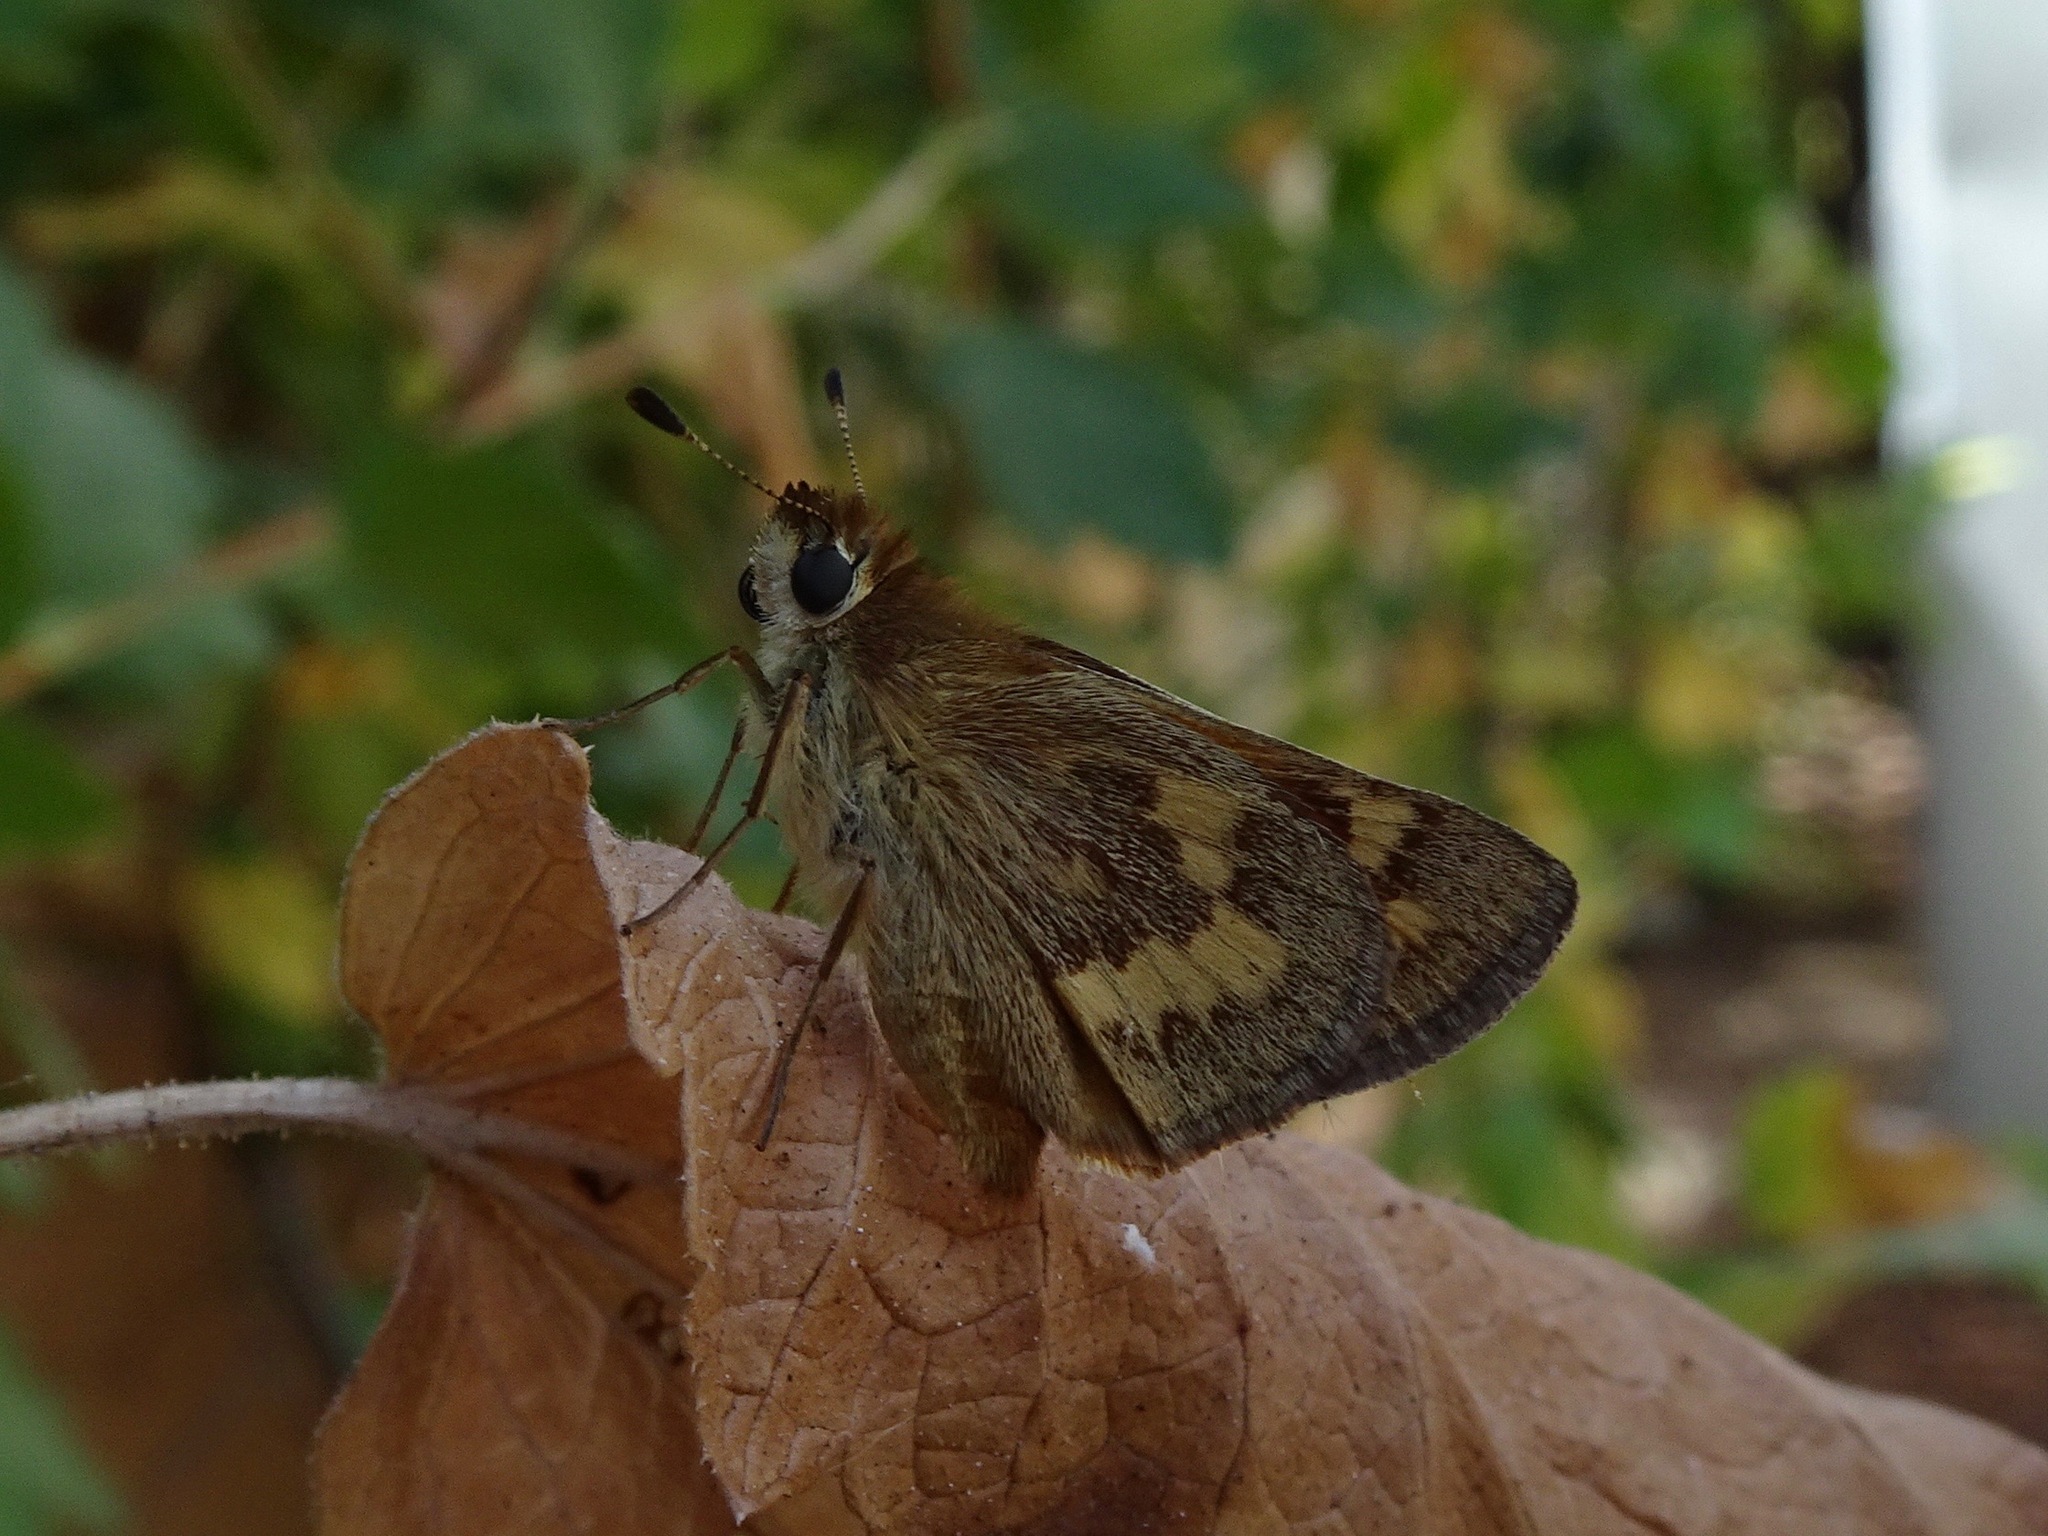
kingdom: Animalia
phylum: Arthropoda
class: Insecta
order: Lepidoptera
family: Hesperiidae
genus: Ochlodes
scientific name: Ochlodes sylvanoides
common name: Woodland skipper
